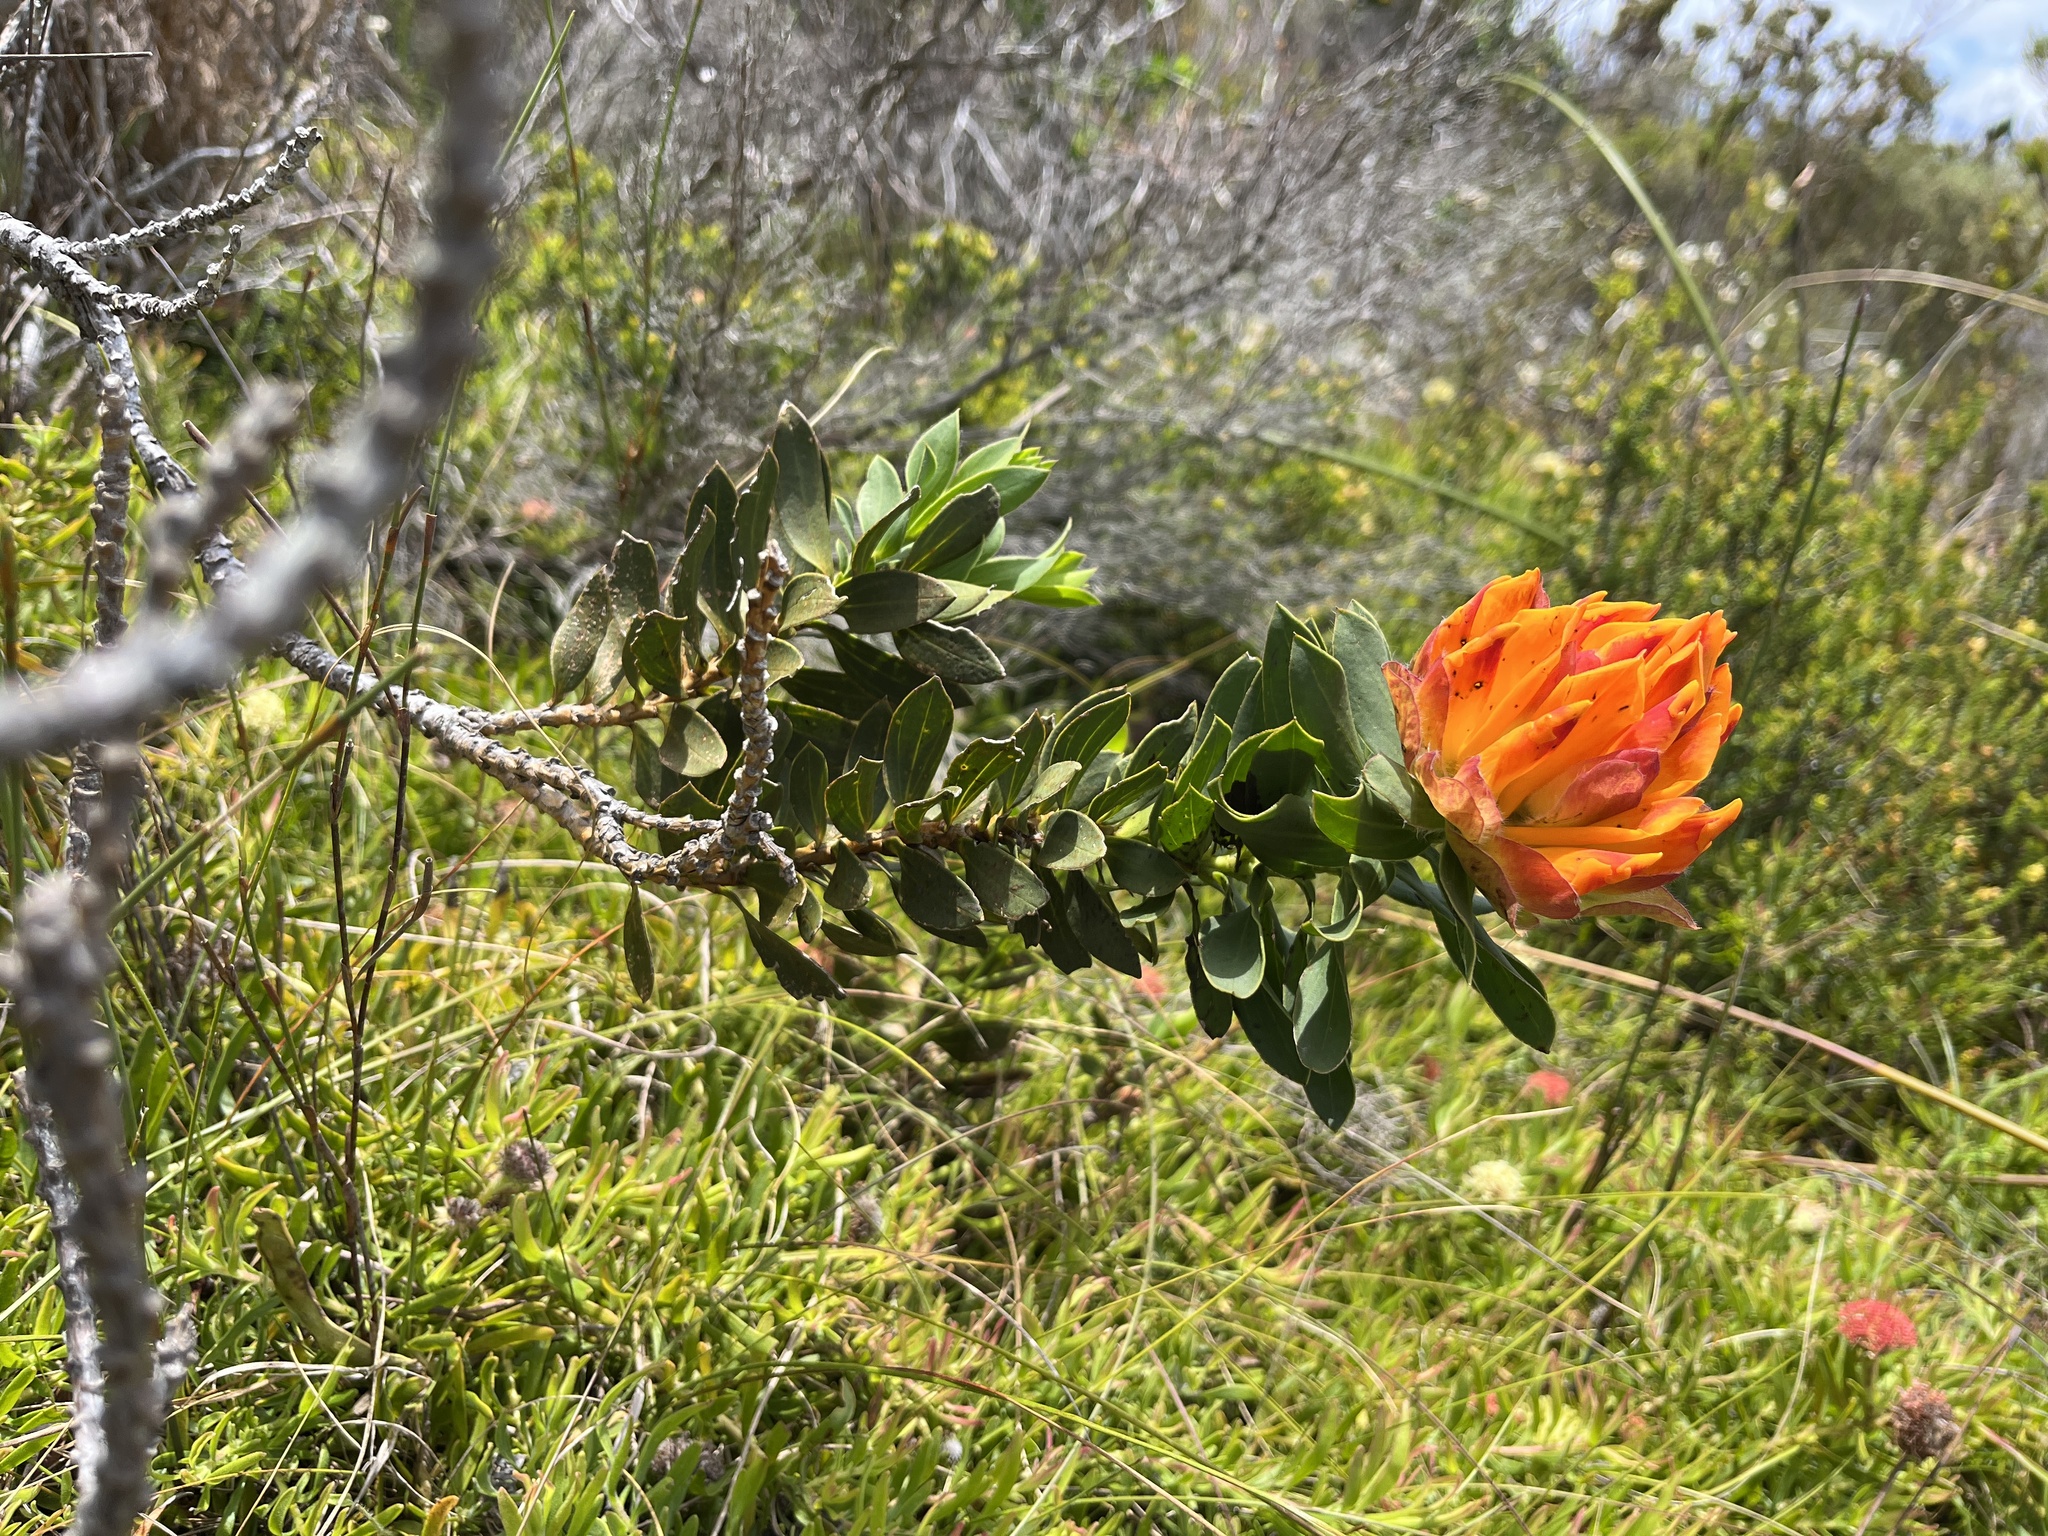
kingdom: Plantae
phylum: Tracheophyta
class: Magnoliopsida
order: Fabales
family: Fabaceae
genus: Liparia
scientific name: Liparia splendens
